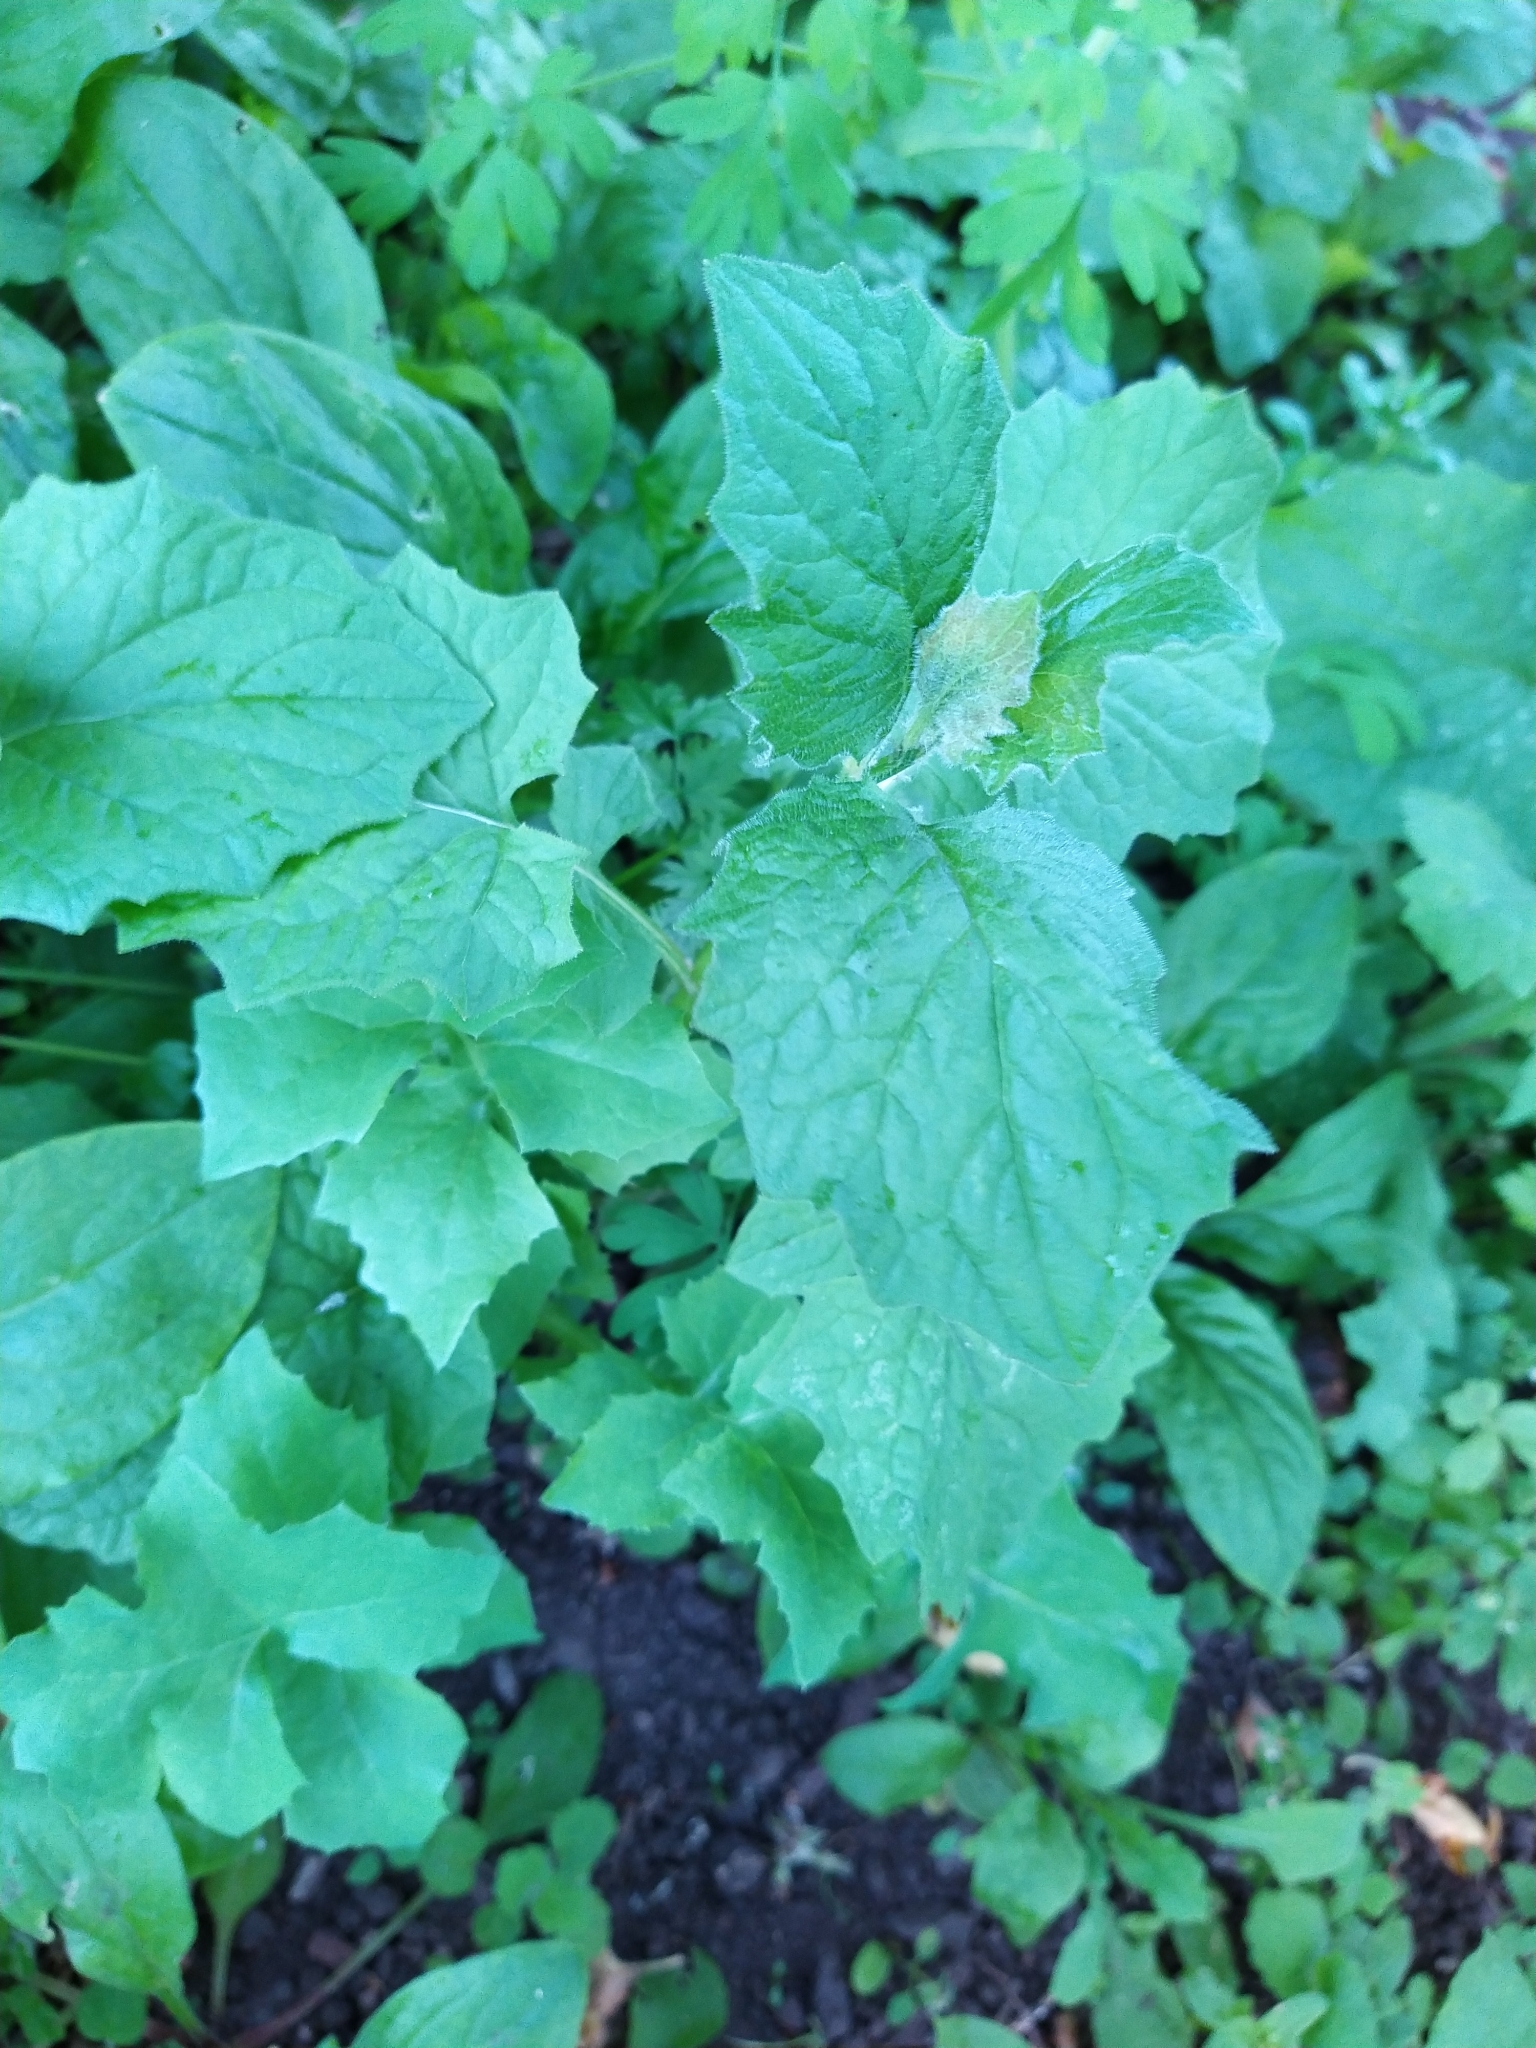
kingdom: Plantae
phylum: Tracheophyta
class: Magnoliopsida
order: Asterales
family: Asteraceae
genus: Lapsana
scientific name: Lapsana communis
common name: Nipplewort
